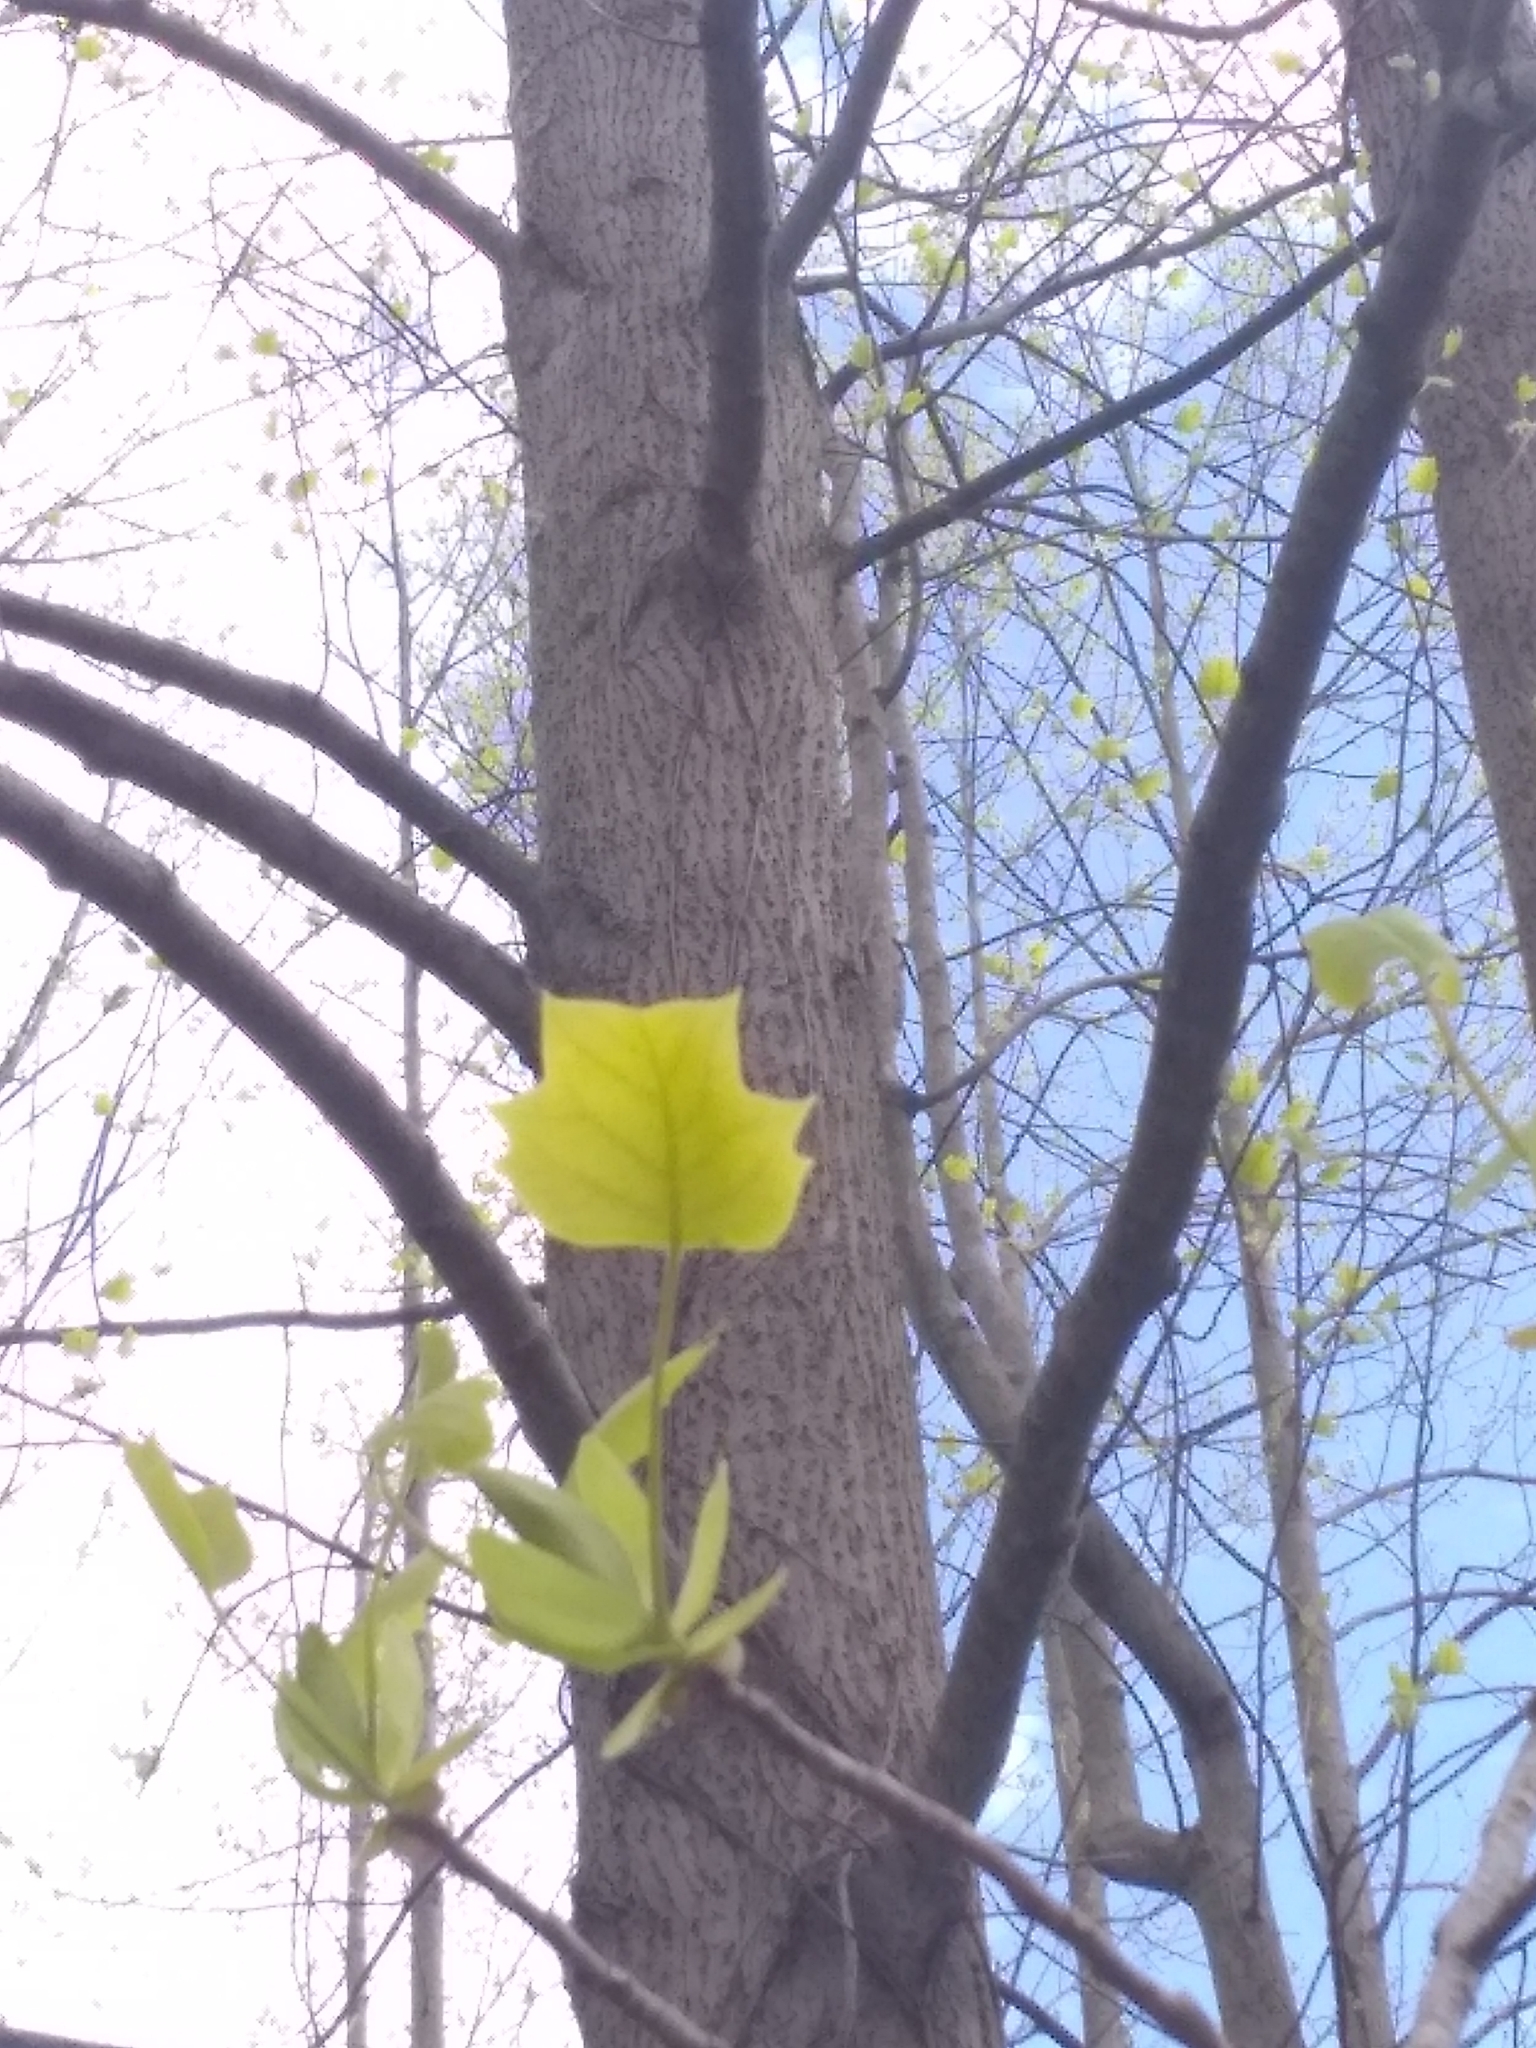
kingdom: Plantae
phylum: Tracheophyta
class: Magnoliopsida
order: Magnoliales
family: Magnoliaceae
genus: Liriodendron
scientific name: Liriodendron tulipifera
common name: Tulip tree
